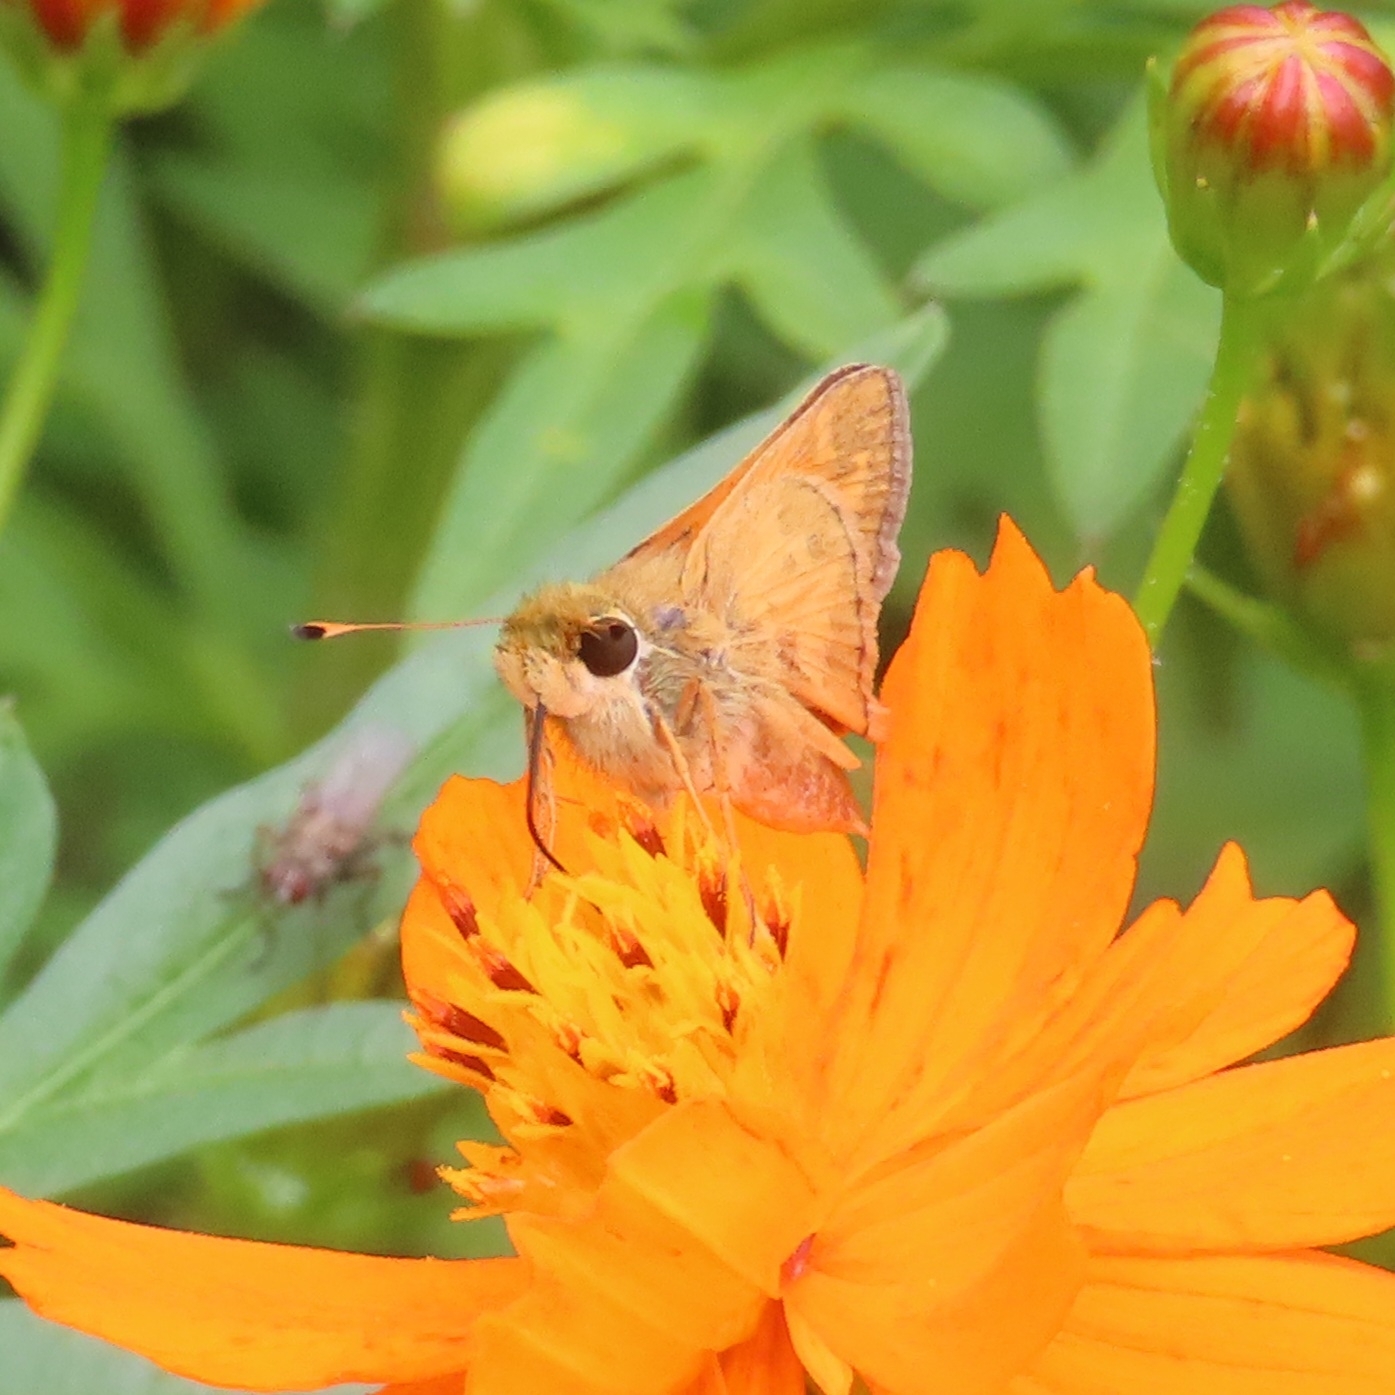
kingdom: Animalia
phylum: Arthropoda
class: Insecta
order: Lepidoptera
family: Hesperiidae
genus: Atalopedes
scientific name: Atalopedes
